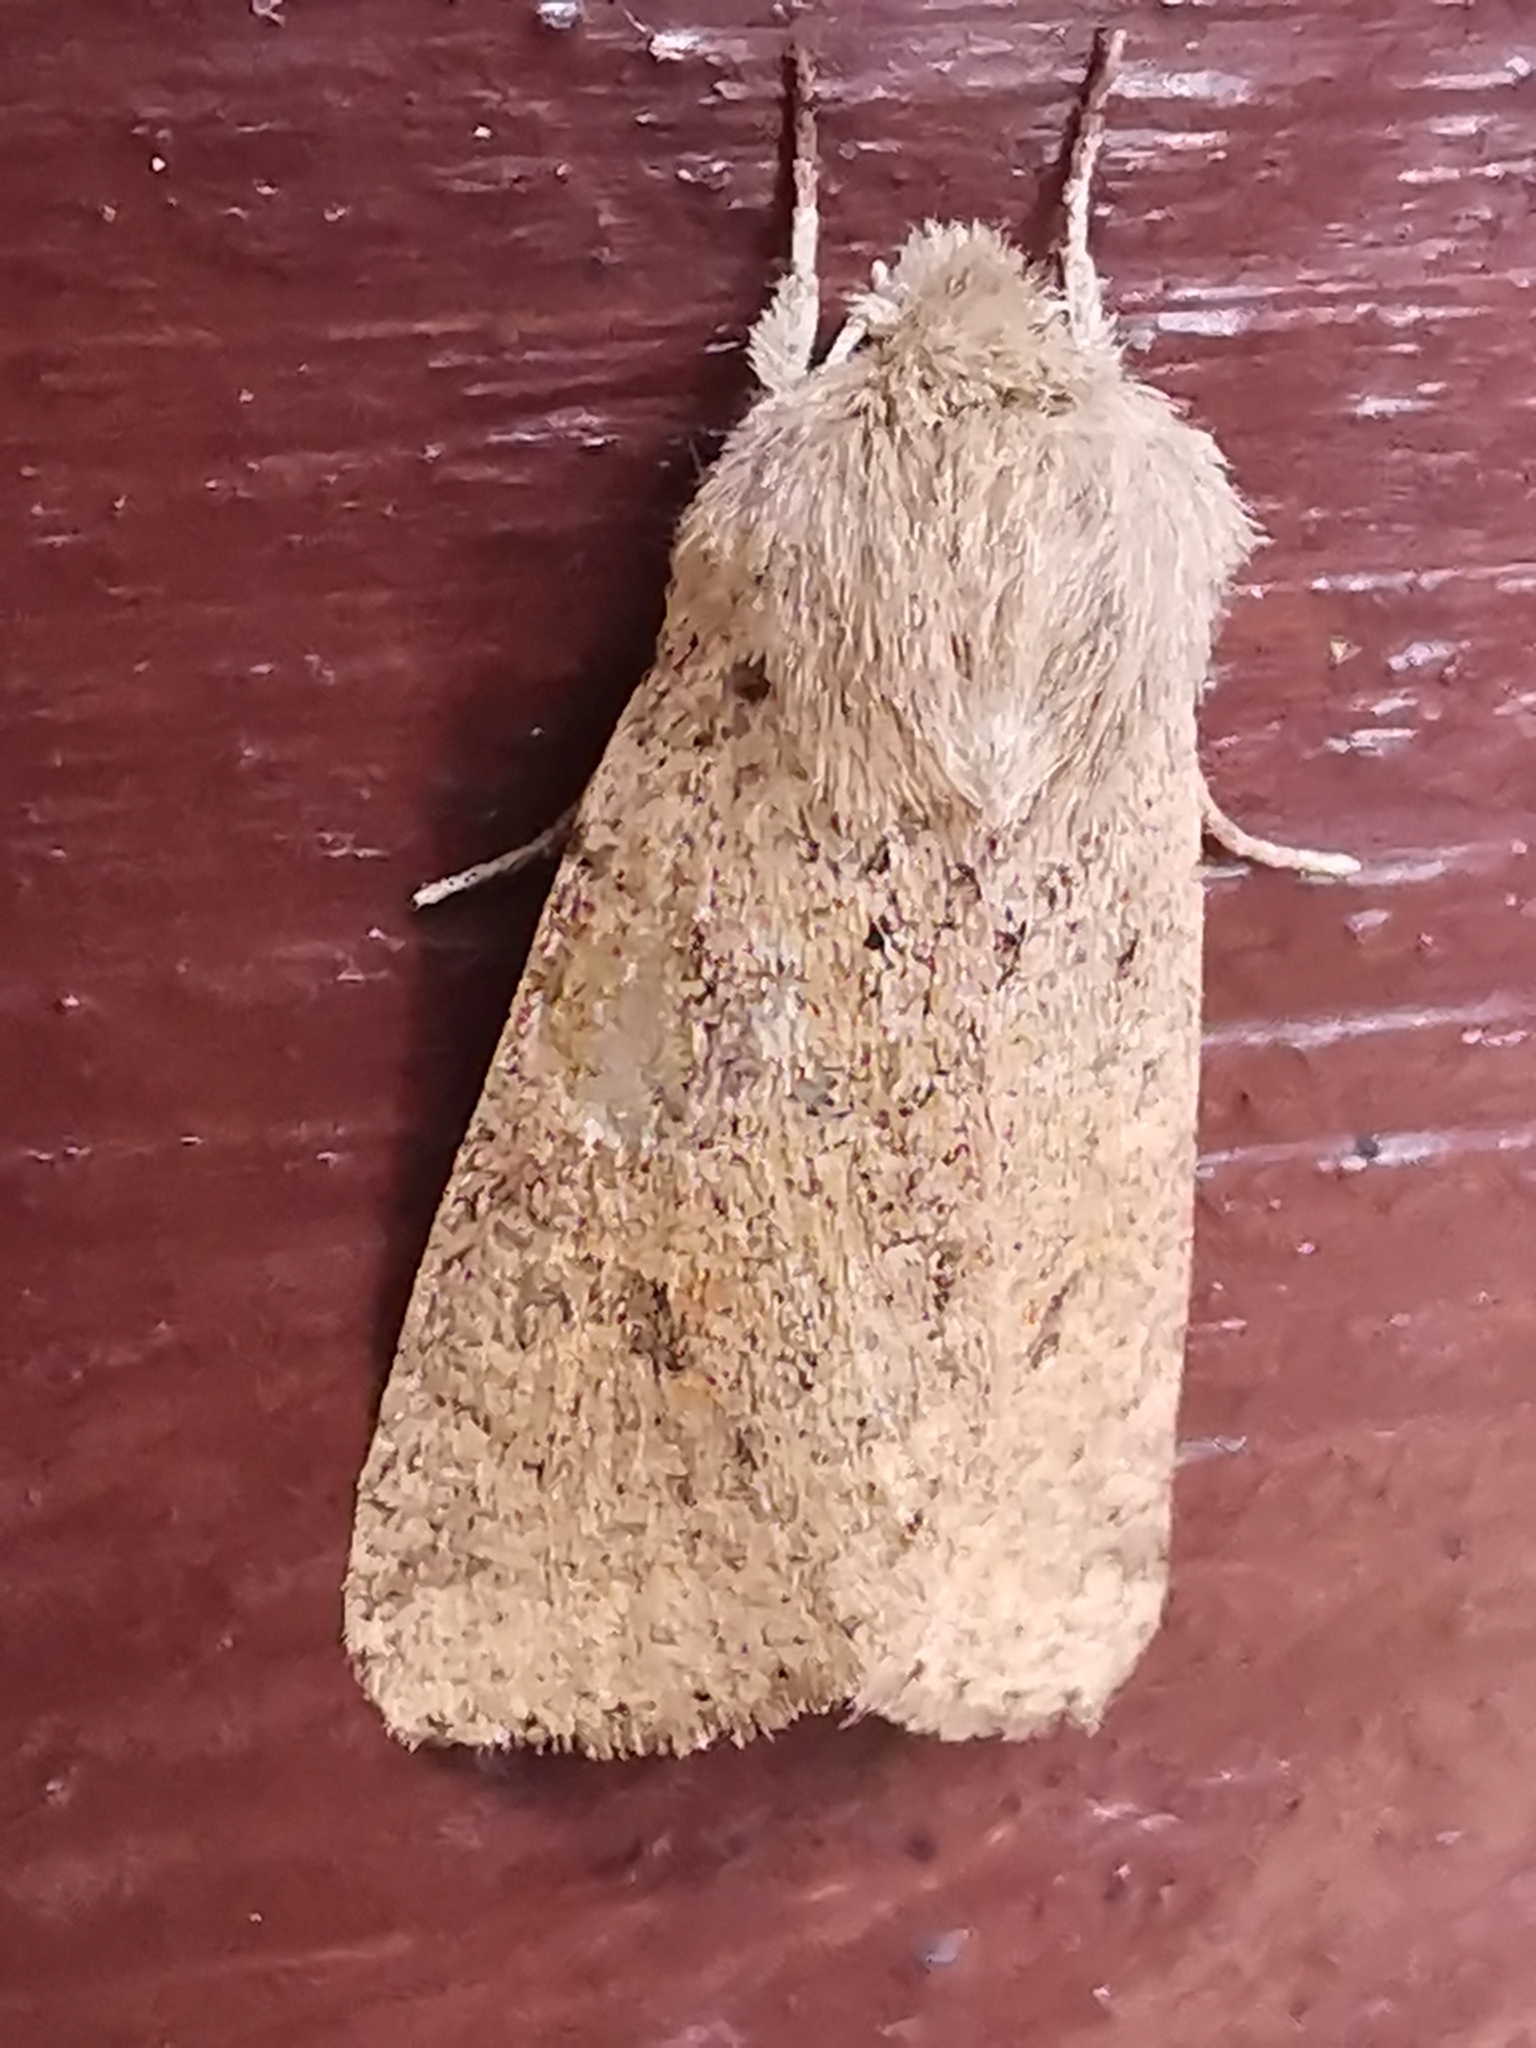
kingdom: Animalia
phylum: Arthropoda
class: Insecta
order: Lepidoptera
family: Noctuidae
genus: Orthosia
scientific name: Orthosia cruda
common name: Small quaker
